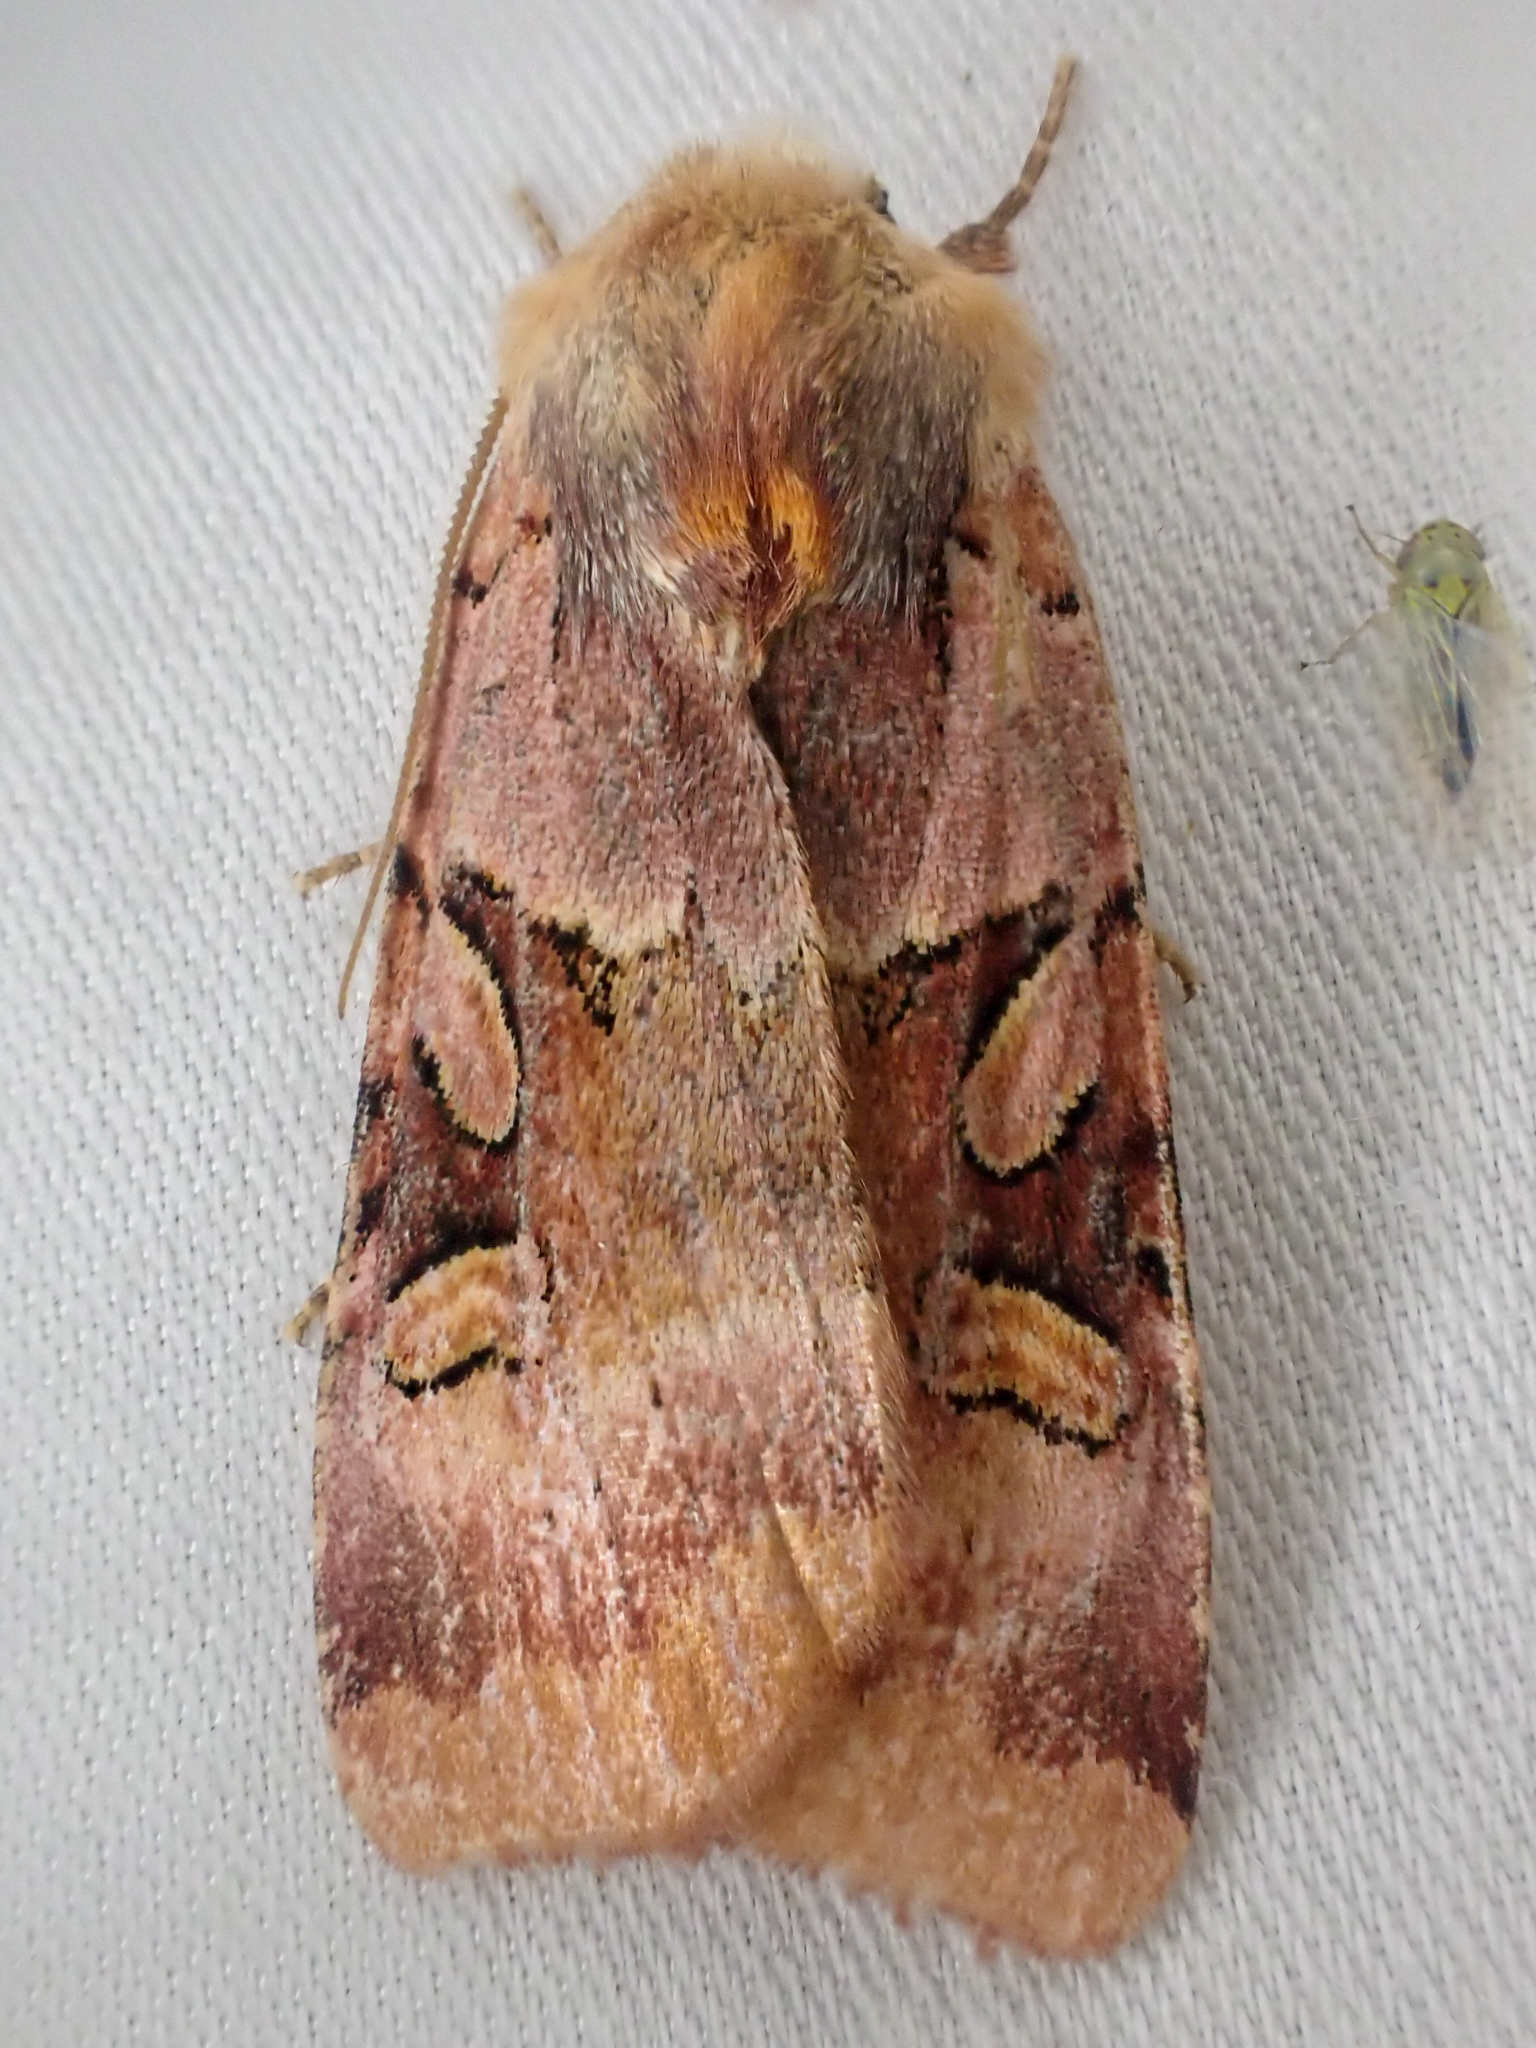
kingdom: Animalia
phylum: Arthropoda
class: Insecta
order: Lepidoptera
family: Noctuidae
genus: Xestia
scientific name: Xestia oblata
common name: Rosy dart
